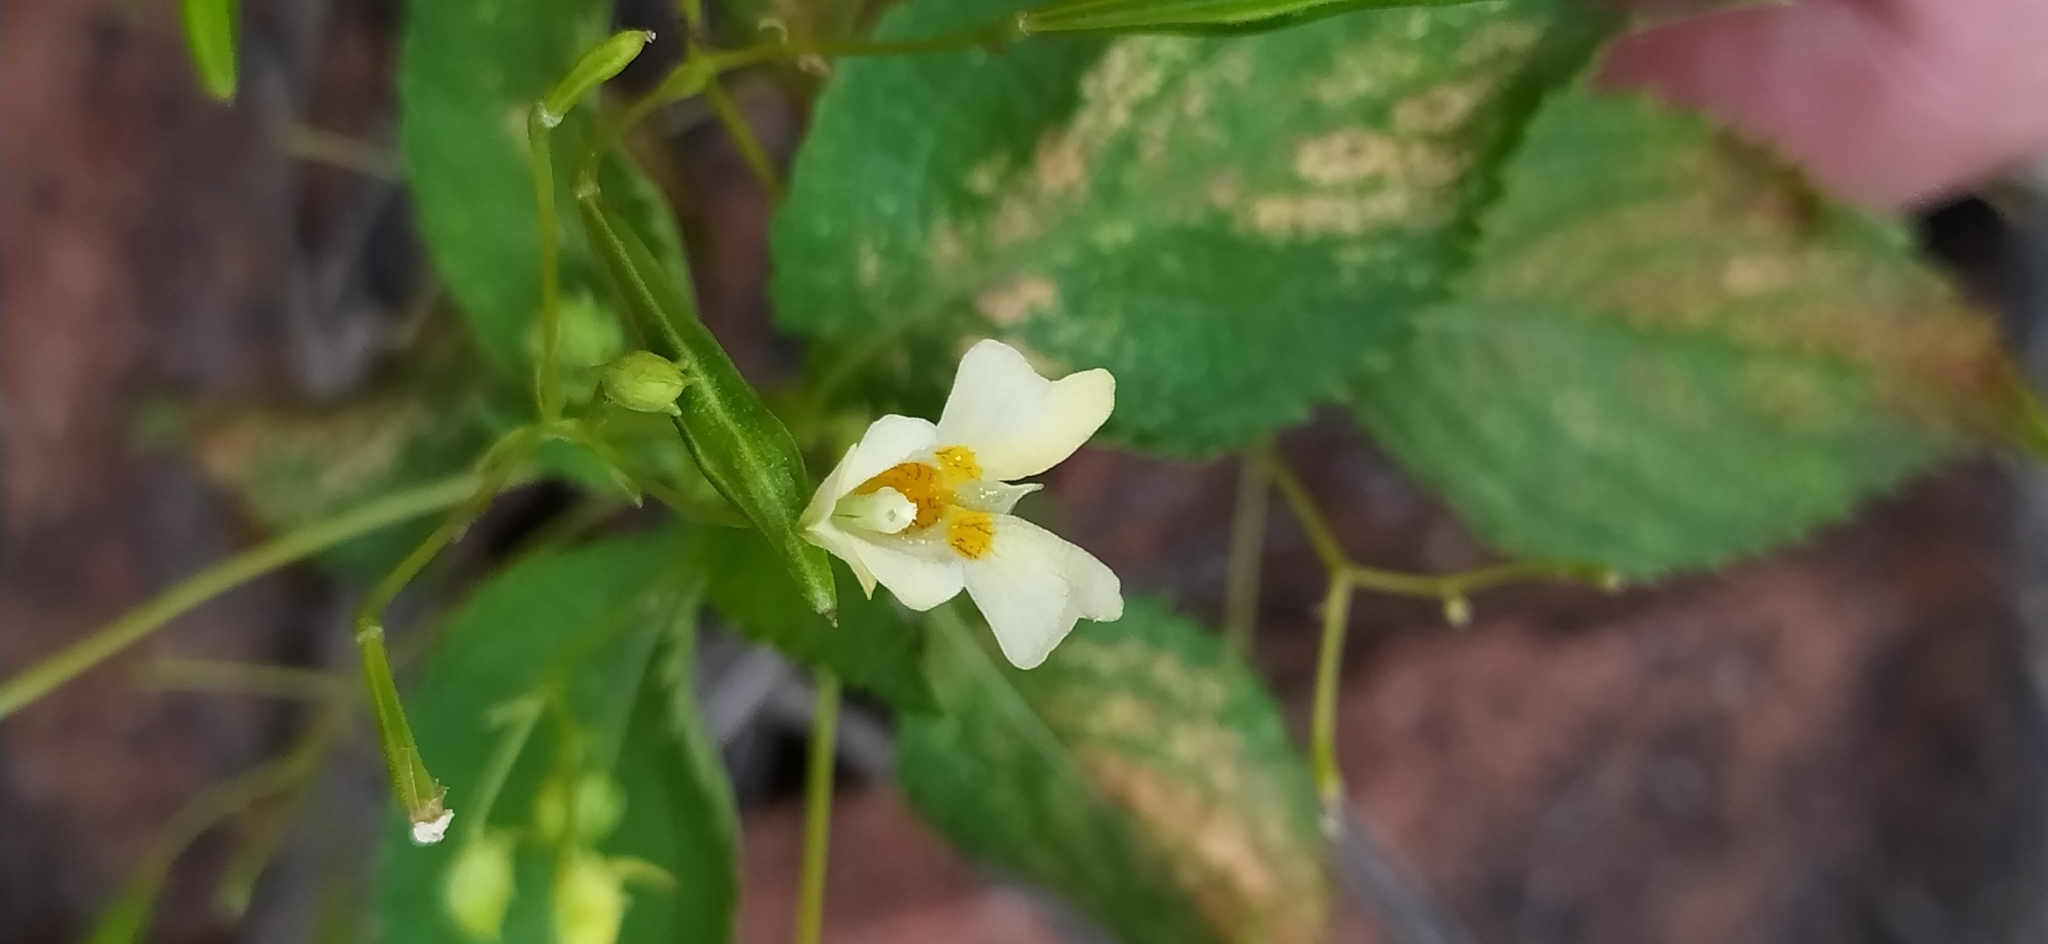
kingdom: Plantae
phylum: Tracheophyta
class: Magnoliopsida
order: Ericales
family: Balsaminaceae
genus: Impatiens
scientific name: Impatiens parviflora
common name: Small balsam
